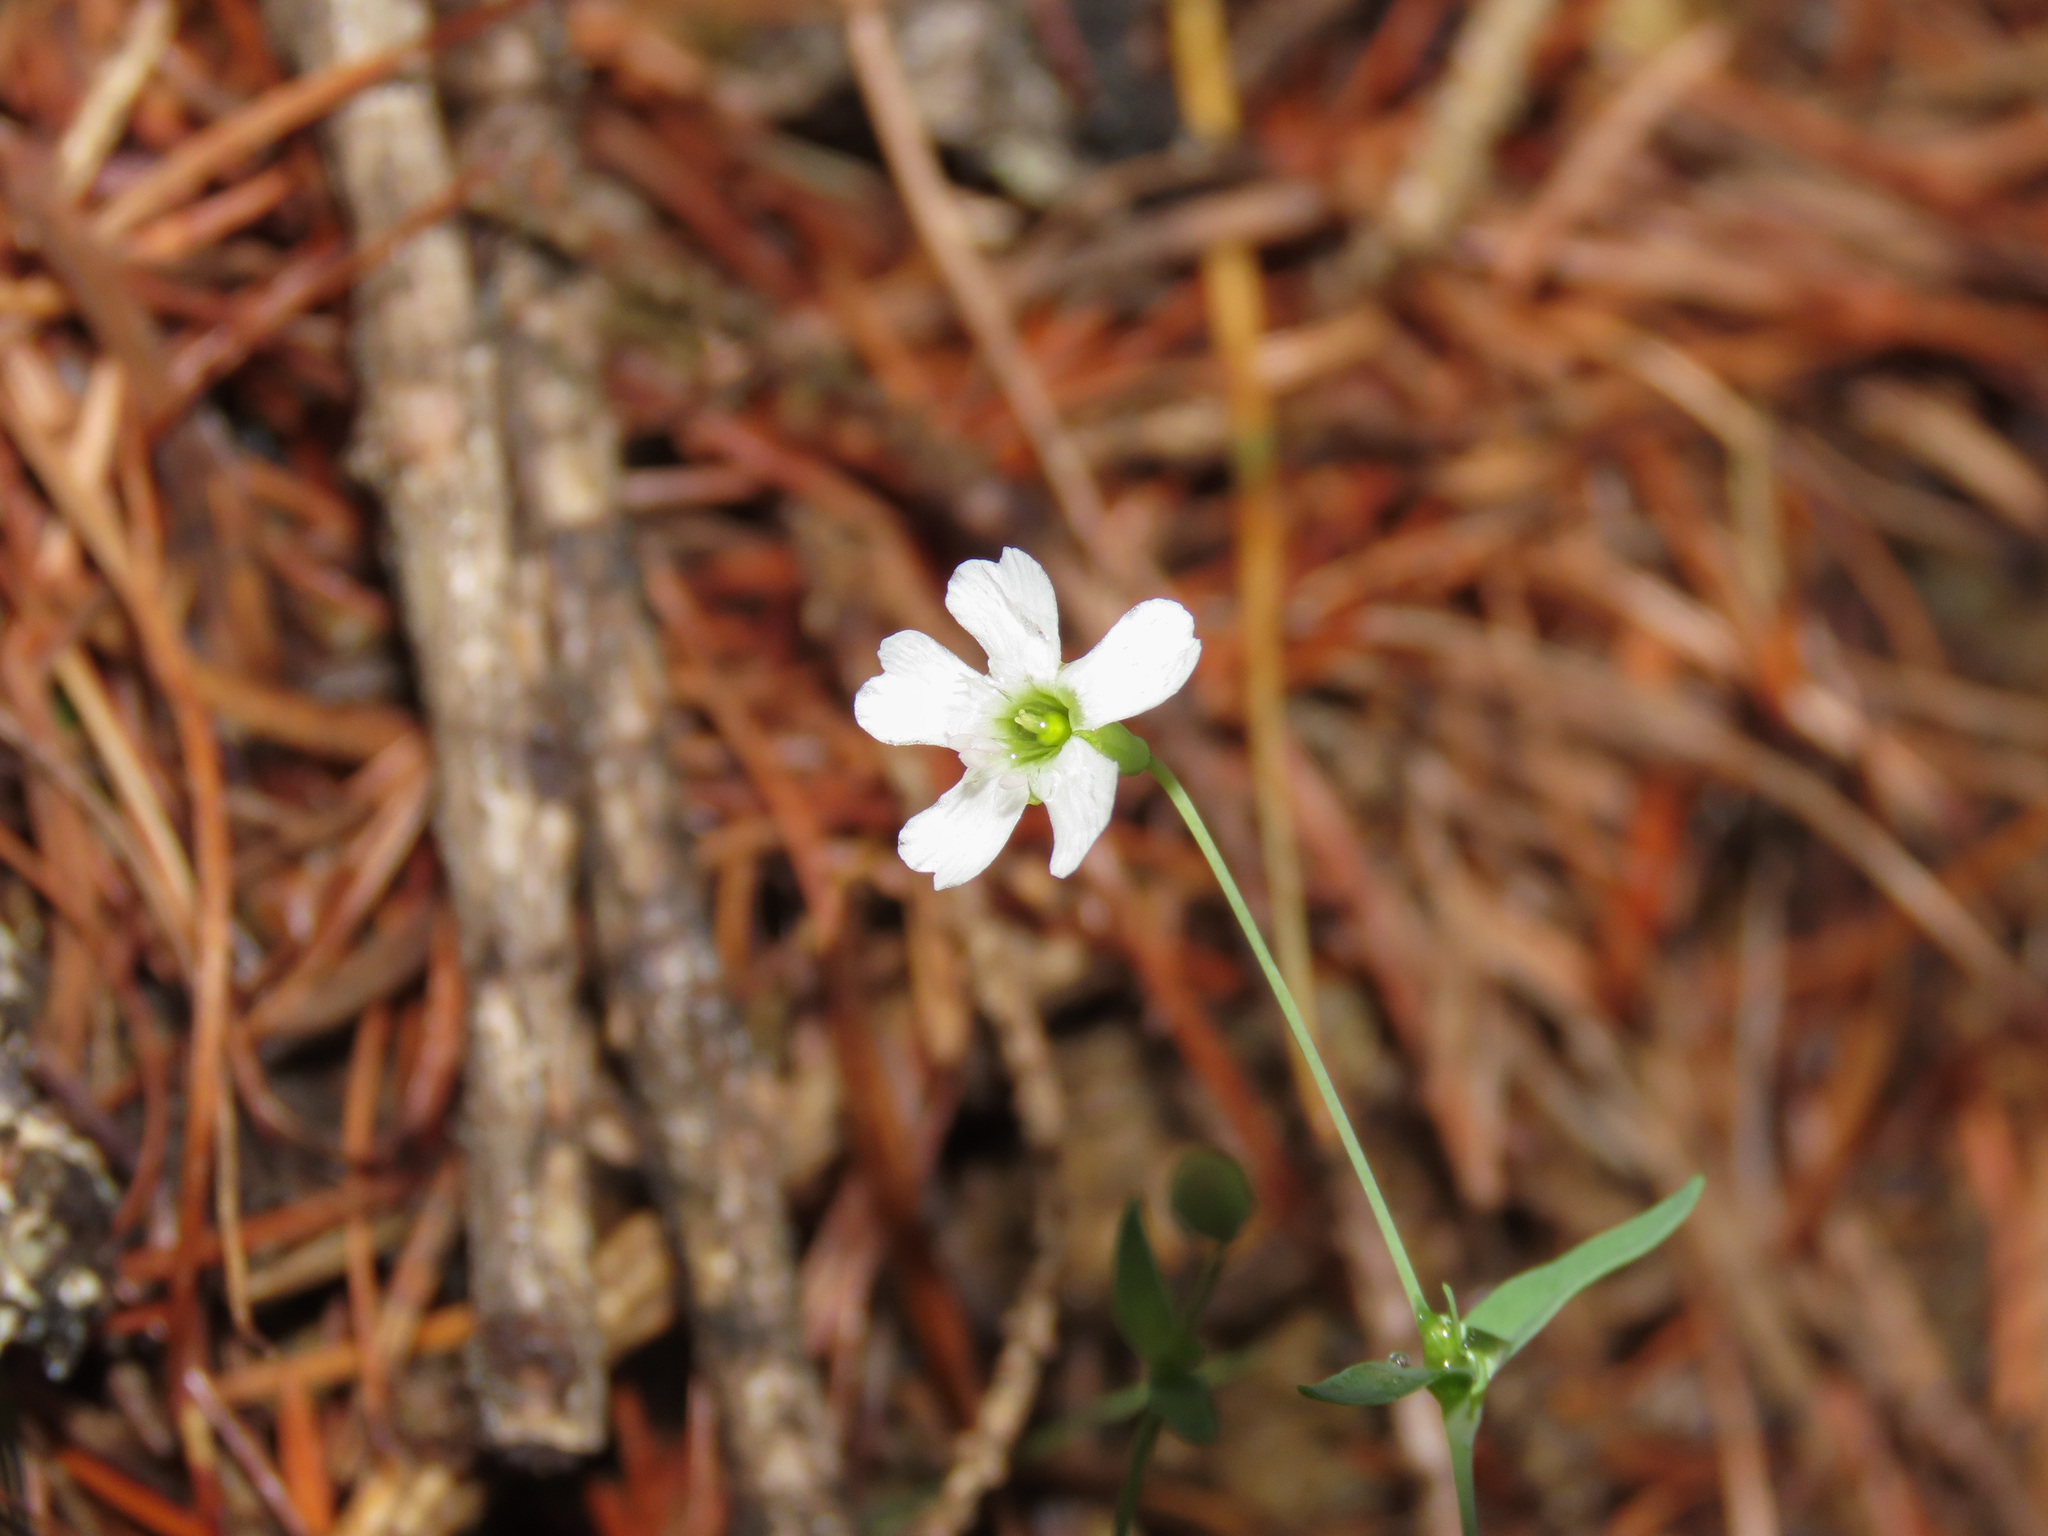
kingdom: Plantae
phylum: Tracheophyta
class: Magnoliopsida
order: Caryophyllales
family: Caryophyllaceae
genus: Atocion
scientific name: Atocion rupestre
